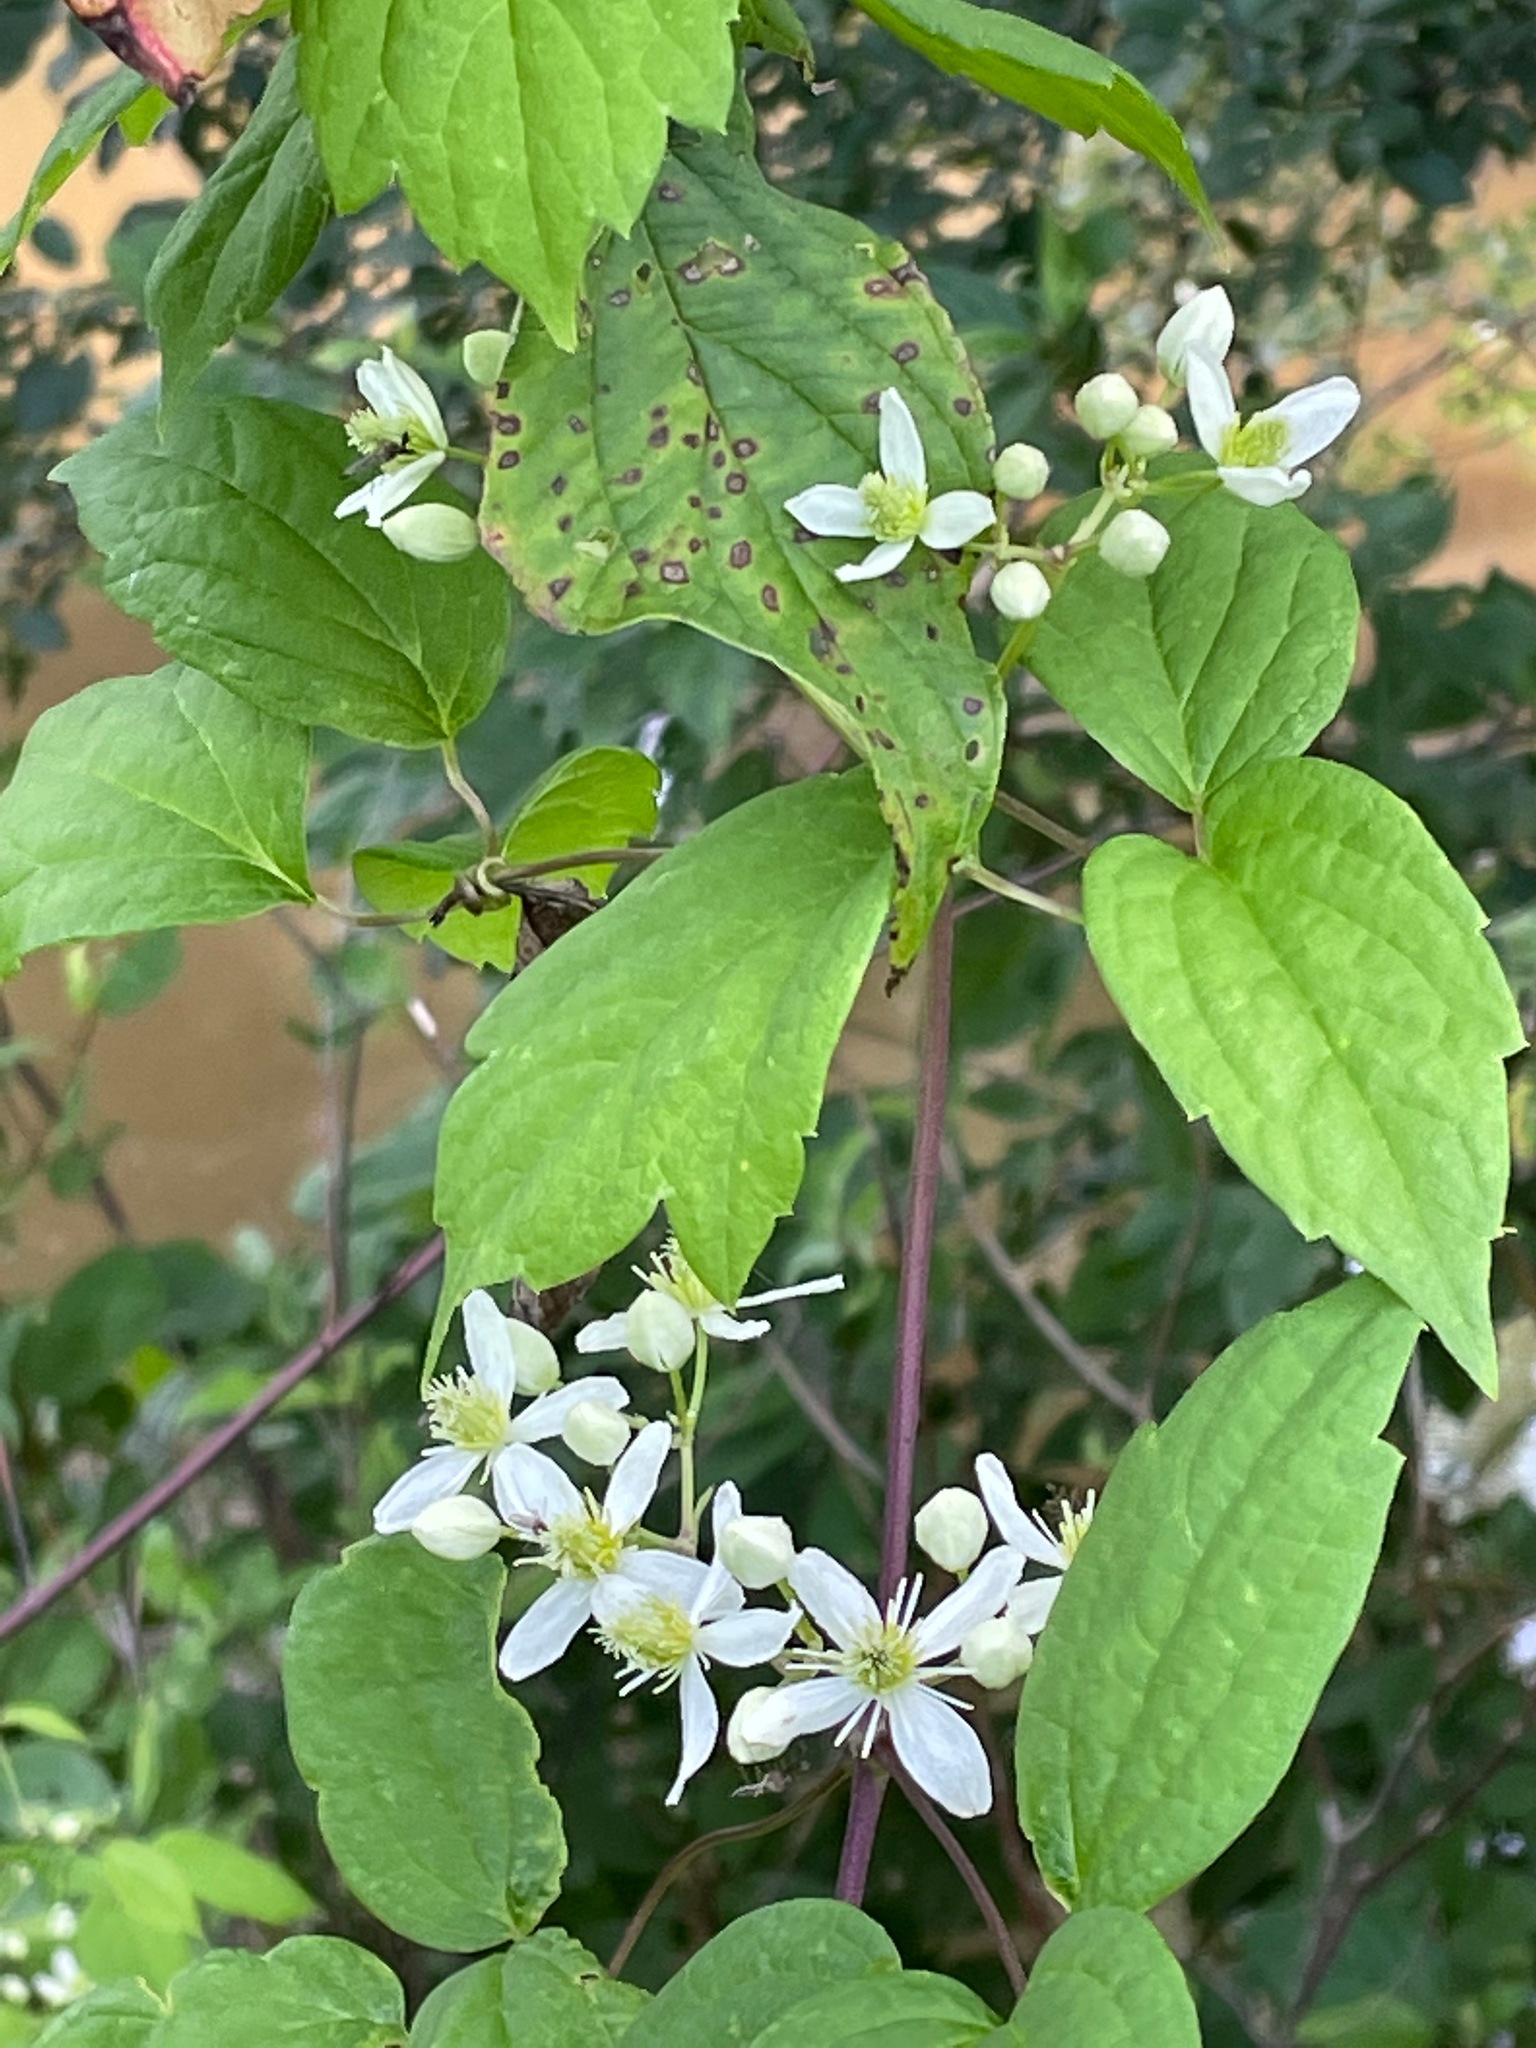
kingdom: Plantae
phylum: Tracheophyta
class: Magnoliopsida
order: Ranunculales
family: Ranunculaceae
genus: Clematis
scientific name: Clematis virginiana
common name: Virgin's-bower
